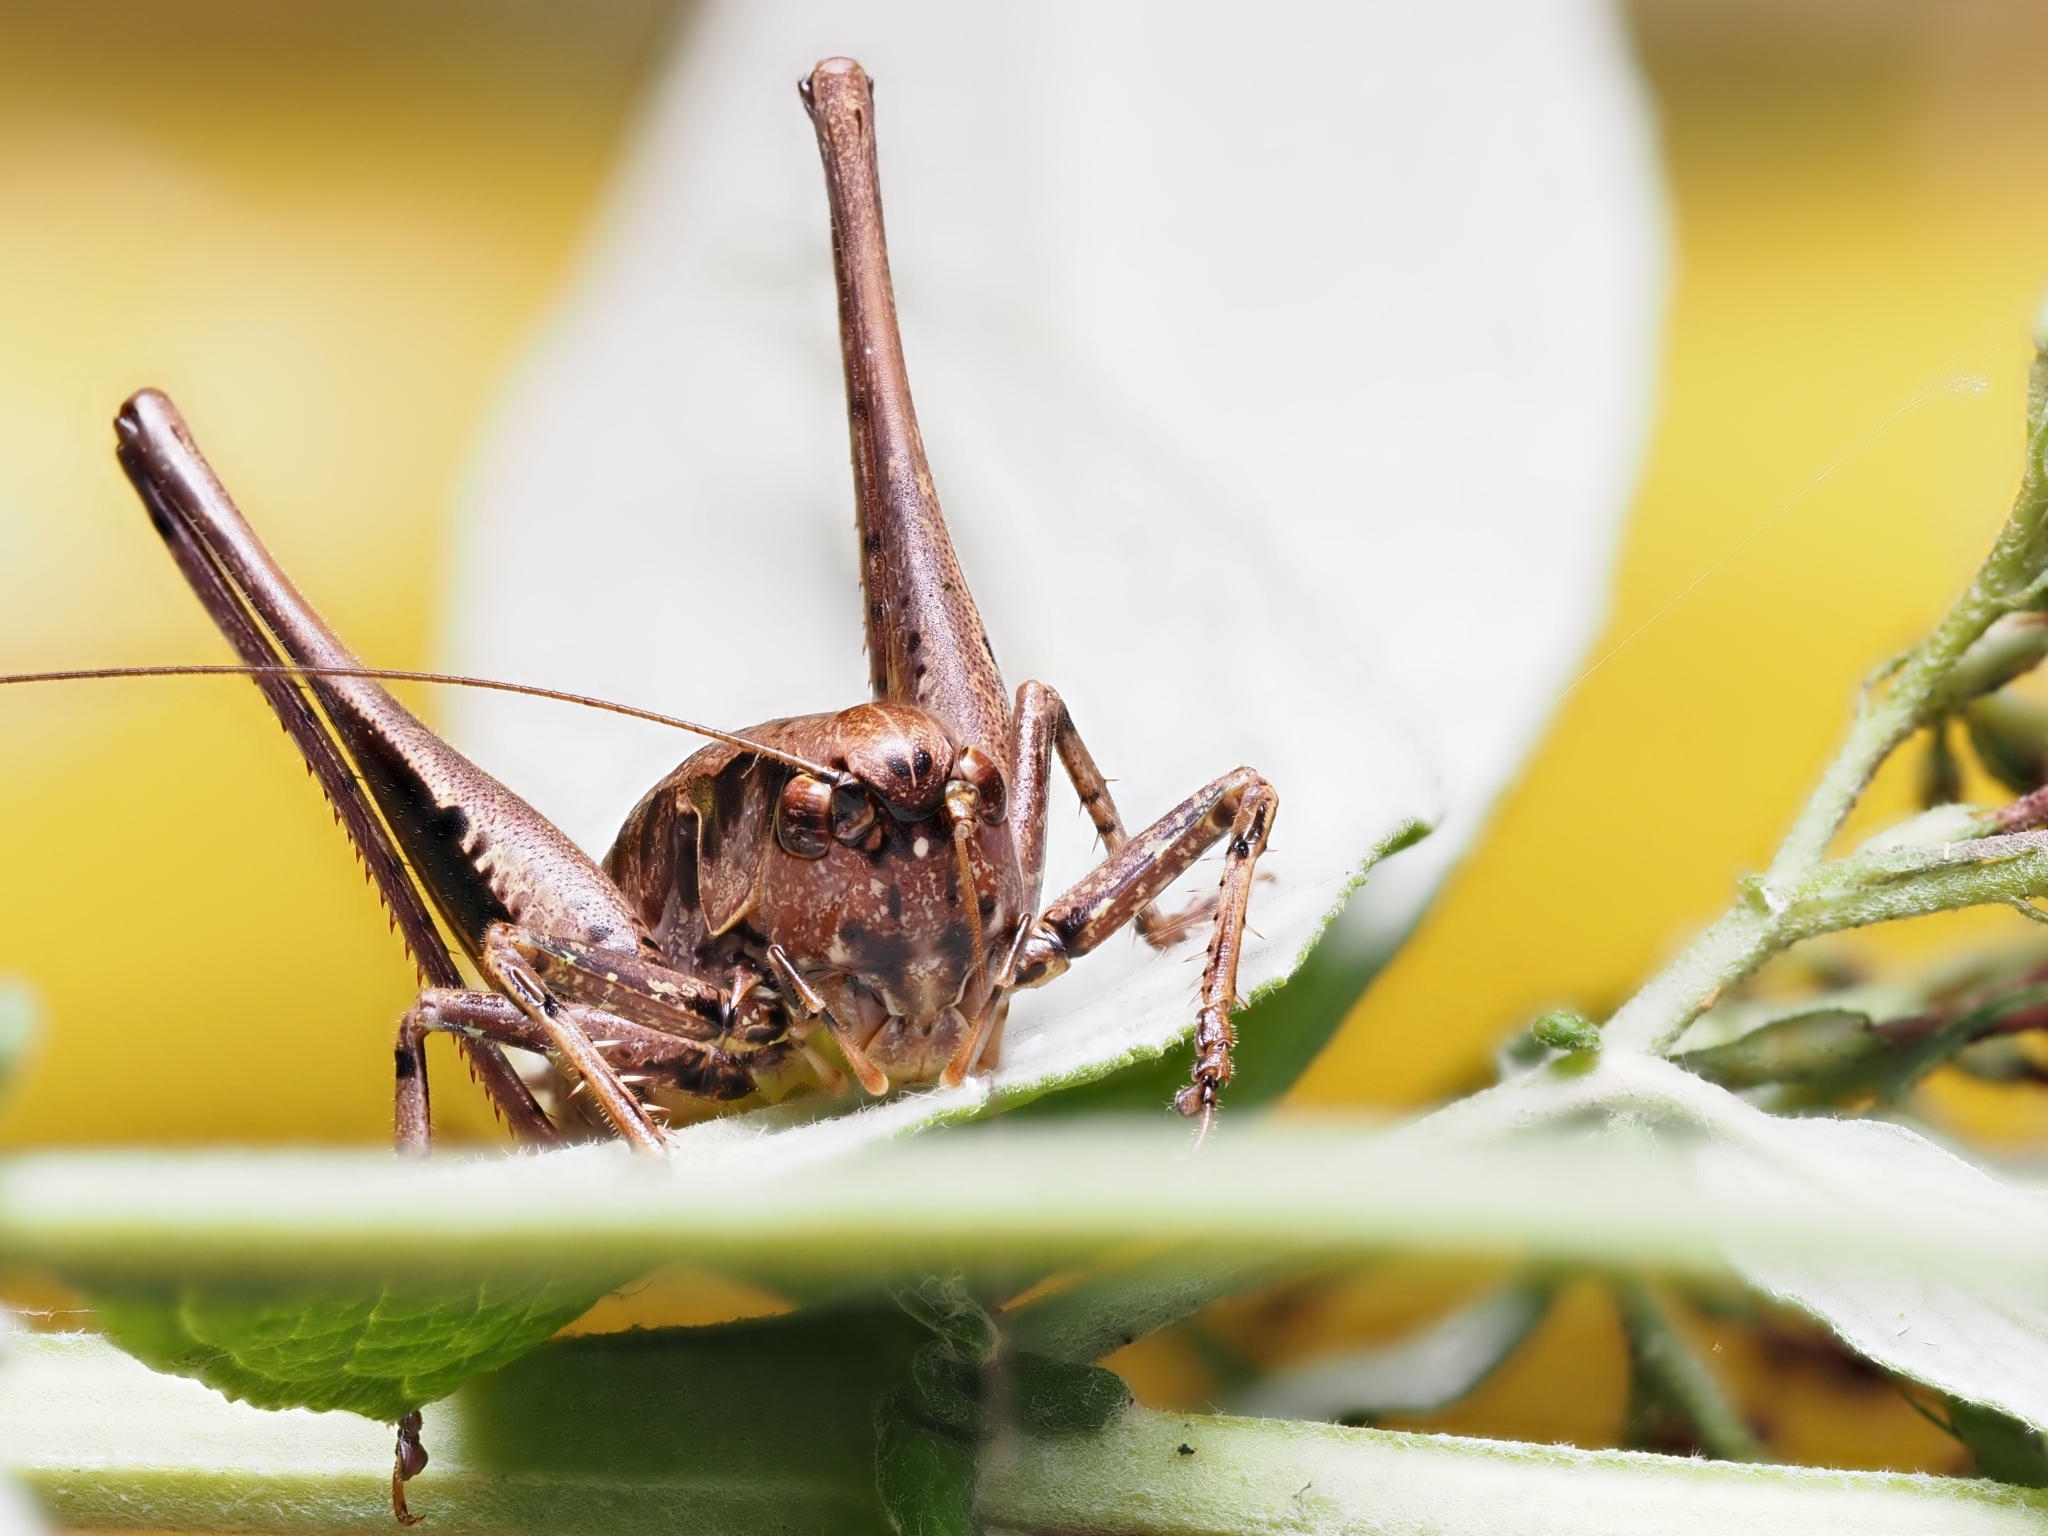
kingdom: Animalia
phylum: Arthropoda
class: Insecta
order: Orthoptera
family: Tettigoniidae
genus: Pholidoptera
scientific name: Pholidoptera griseoaptera
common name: Dark bush-cricket
